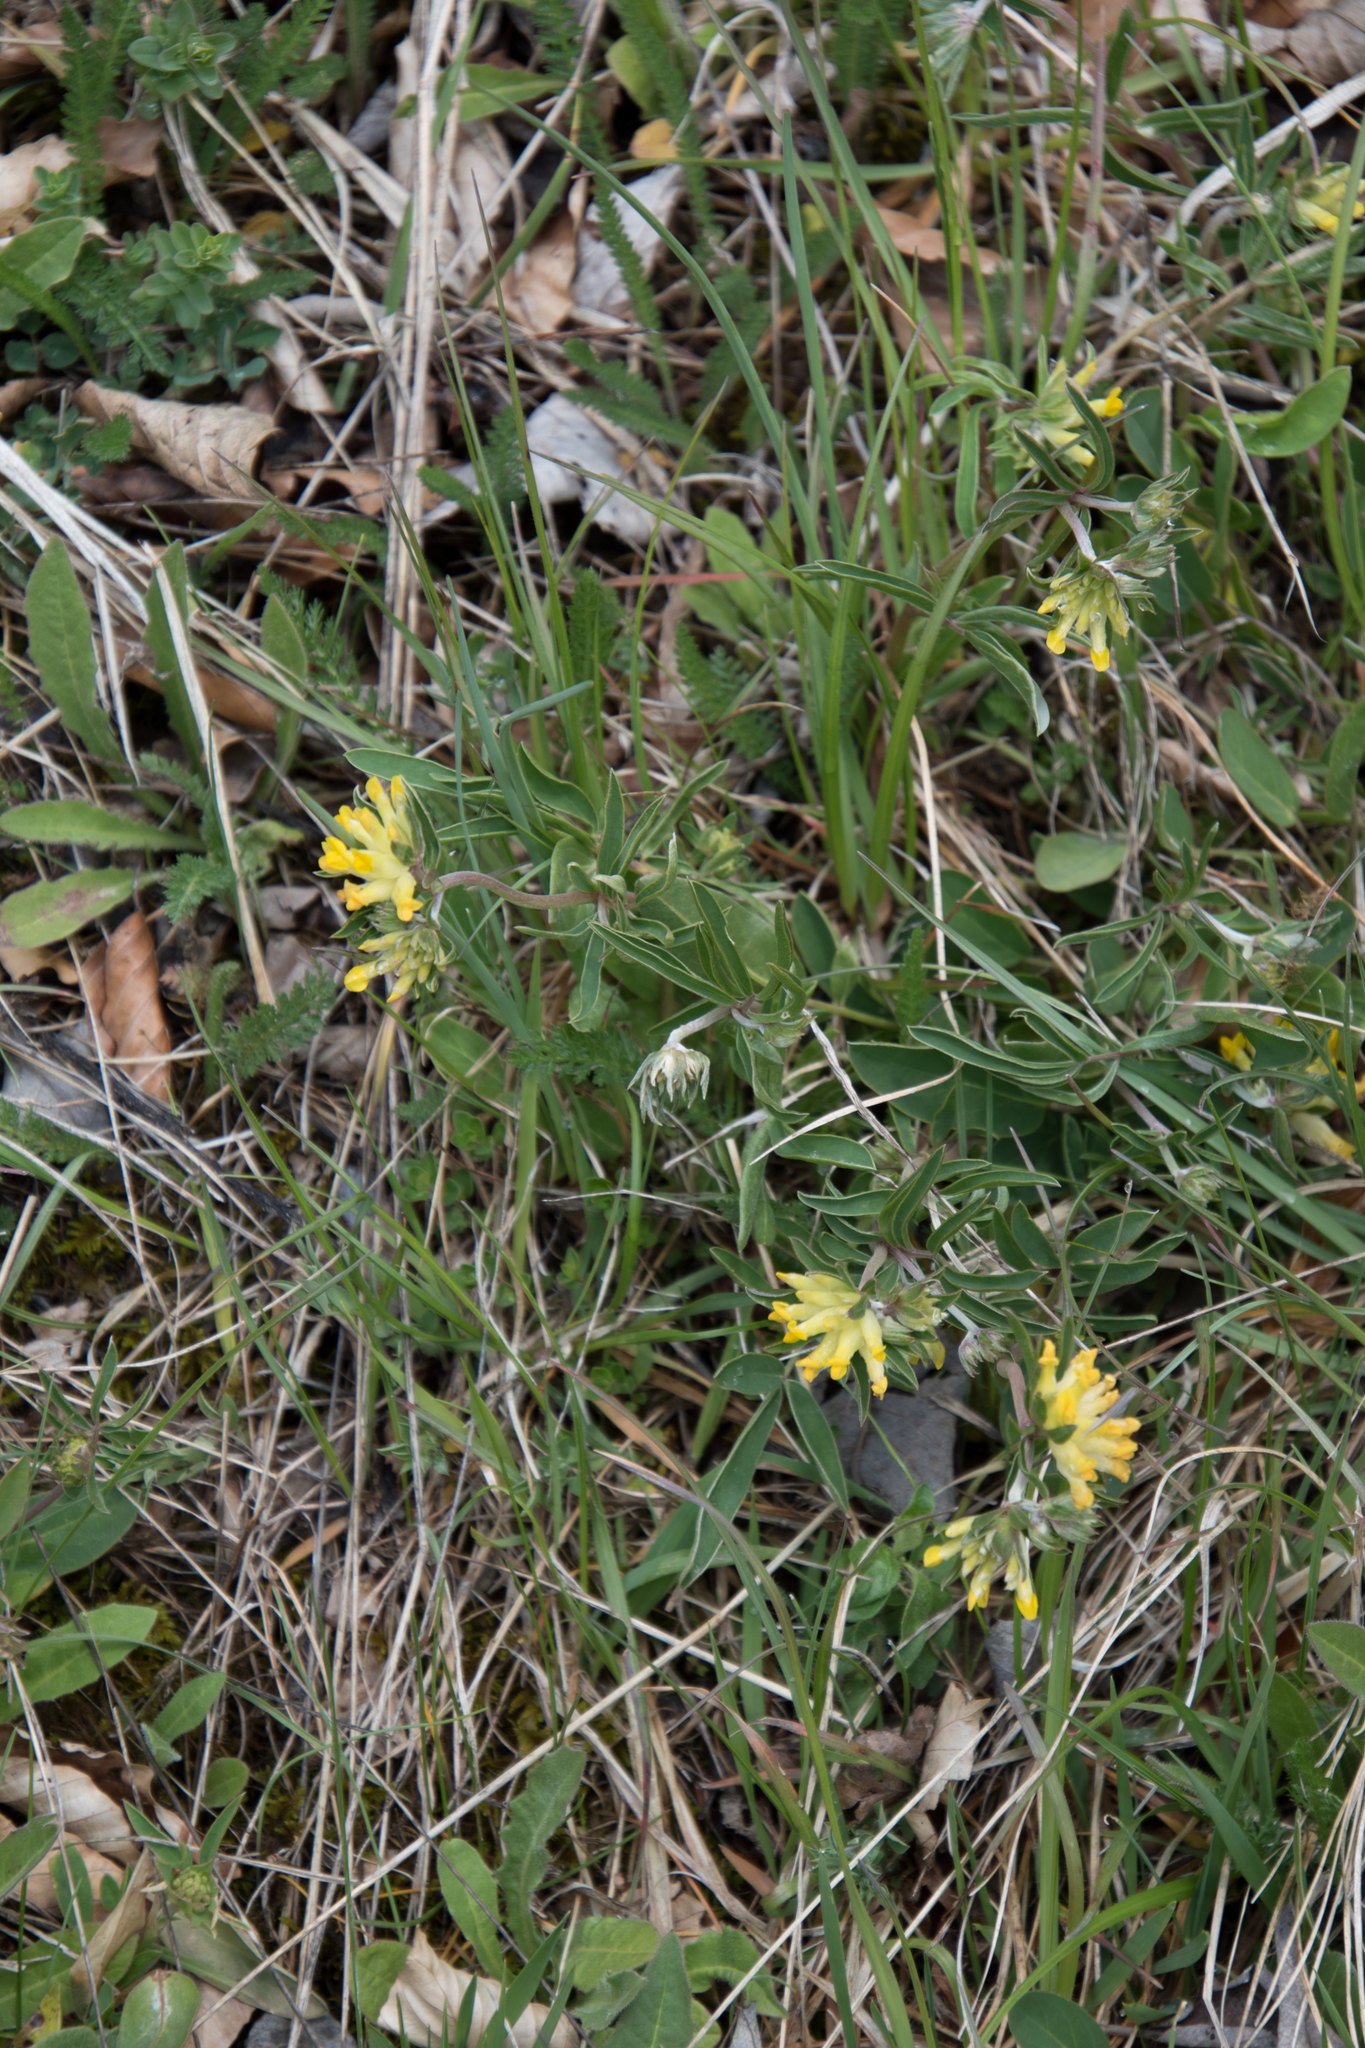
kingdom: Plantae
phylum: Tracheophyta
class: Magnoliopsida
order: Fabales
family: Fabaceae
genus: Anthyllis
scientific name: Anthyllis vulneraria
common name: Kidney vetch
